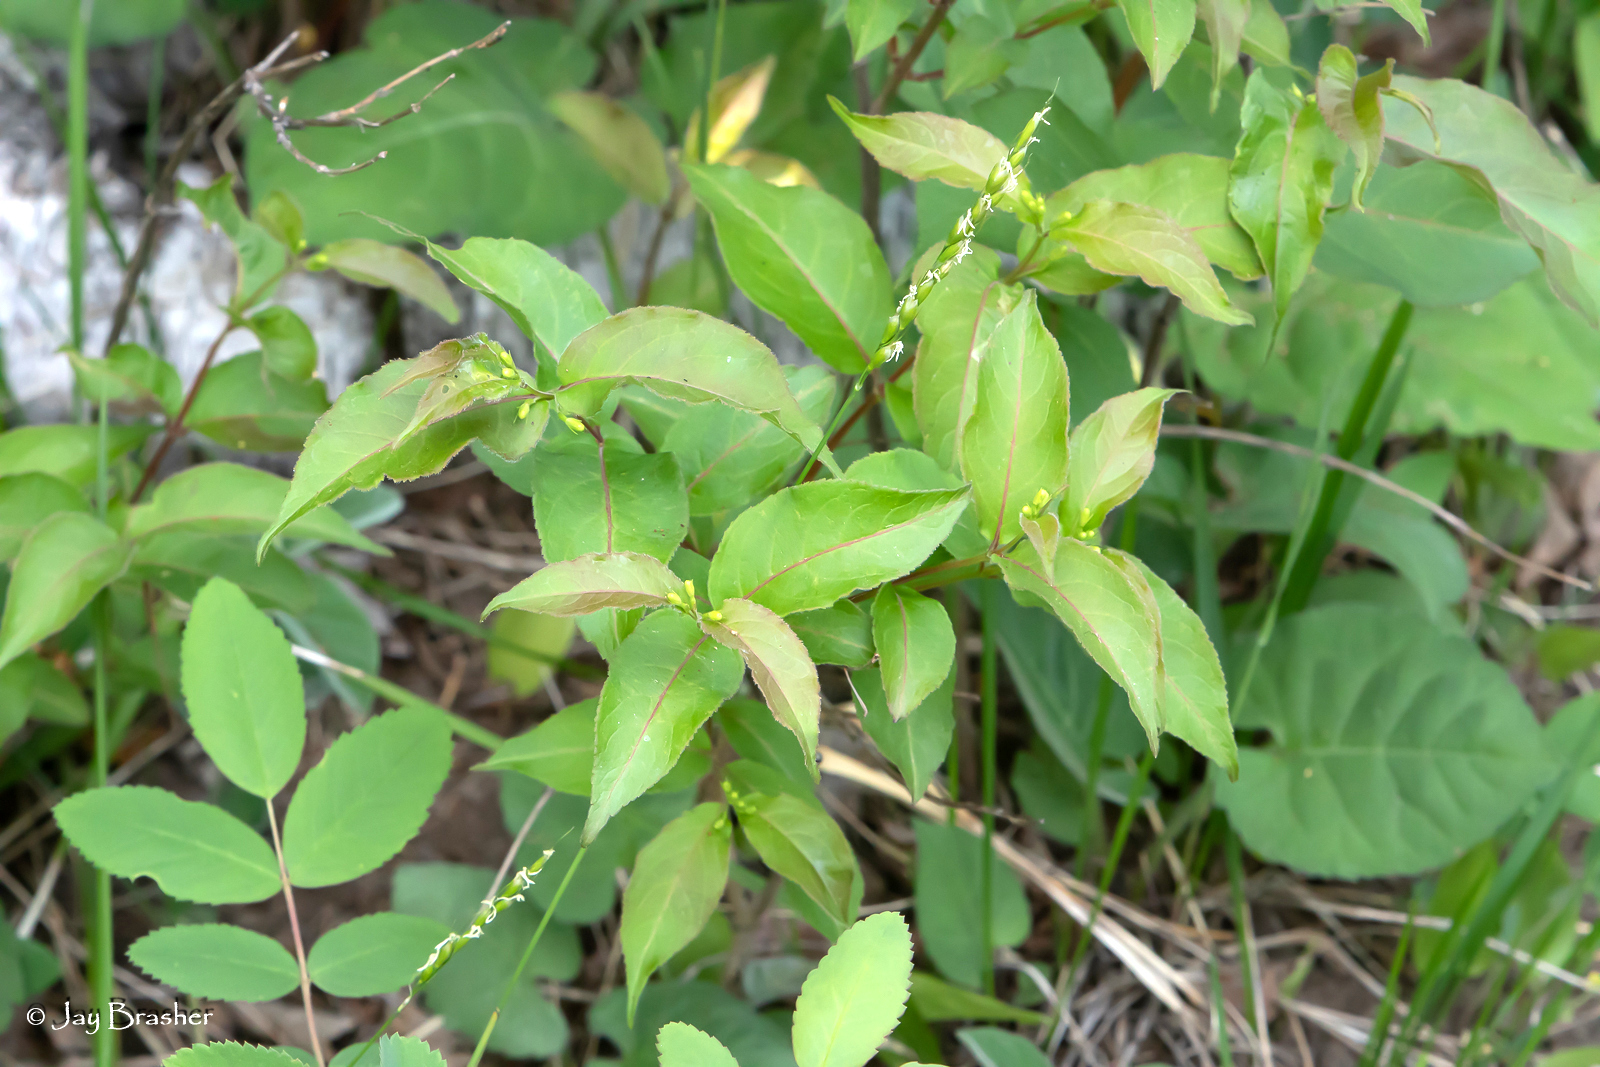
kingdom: Plantae
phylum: Tracheophyta
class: Liliopsida
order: Poales
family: Poaceae
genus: Oryzopsis
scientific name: Oryzopsis asperifolia
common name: Rough-leaved mountain rice
